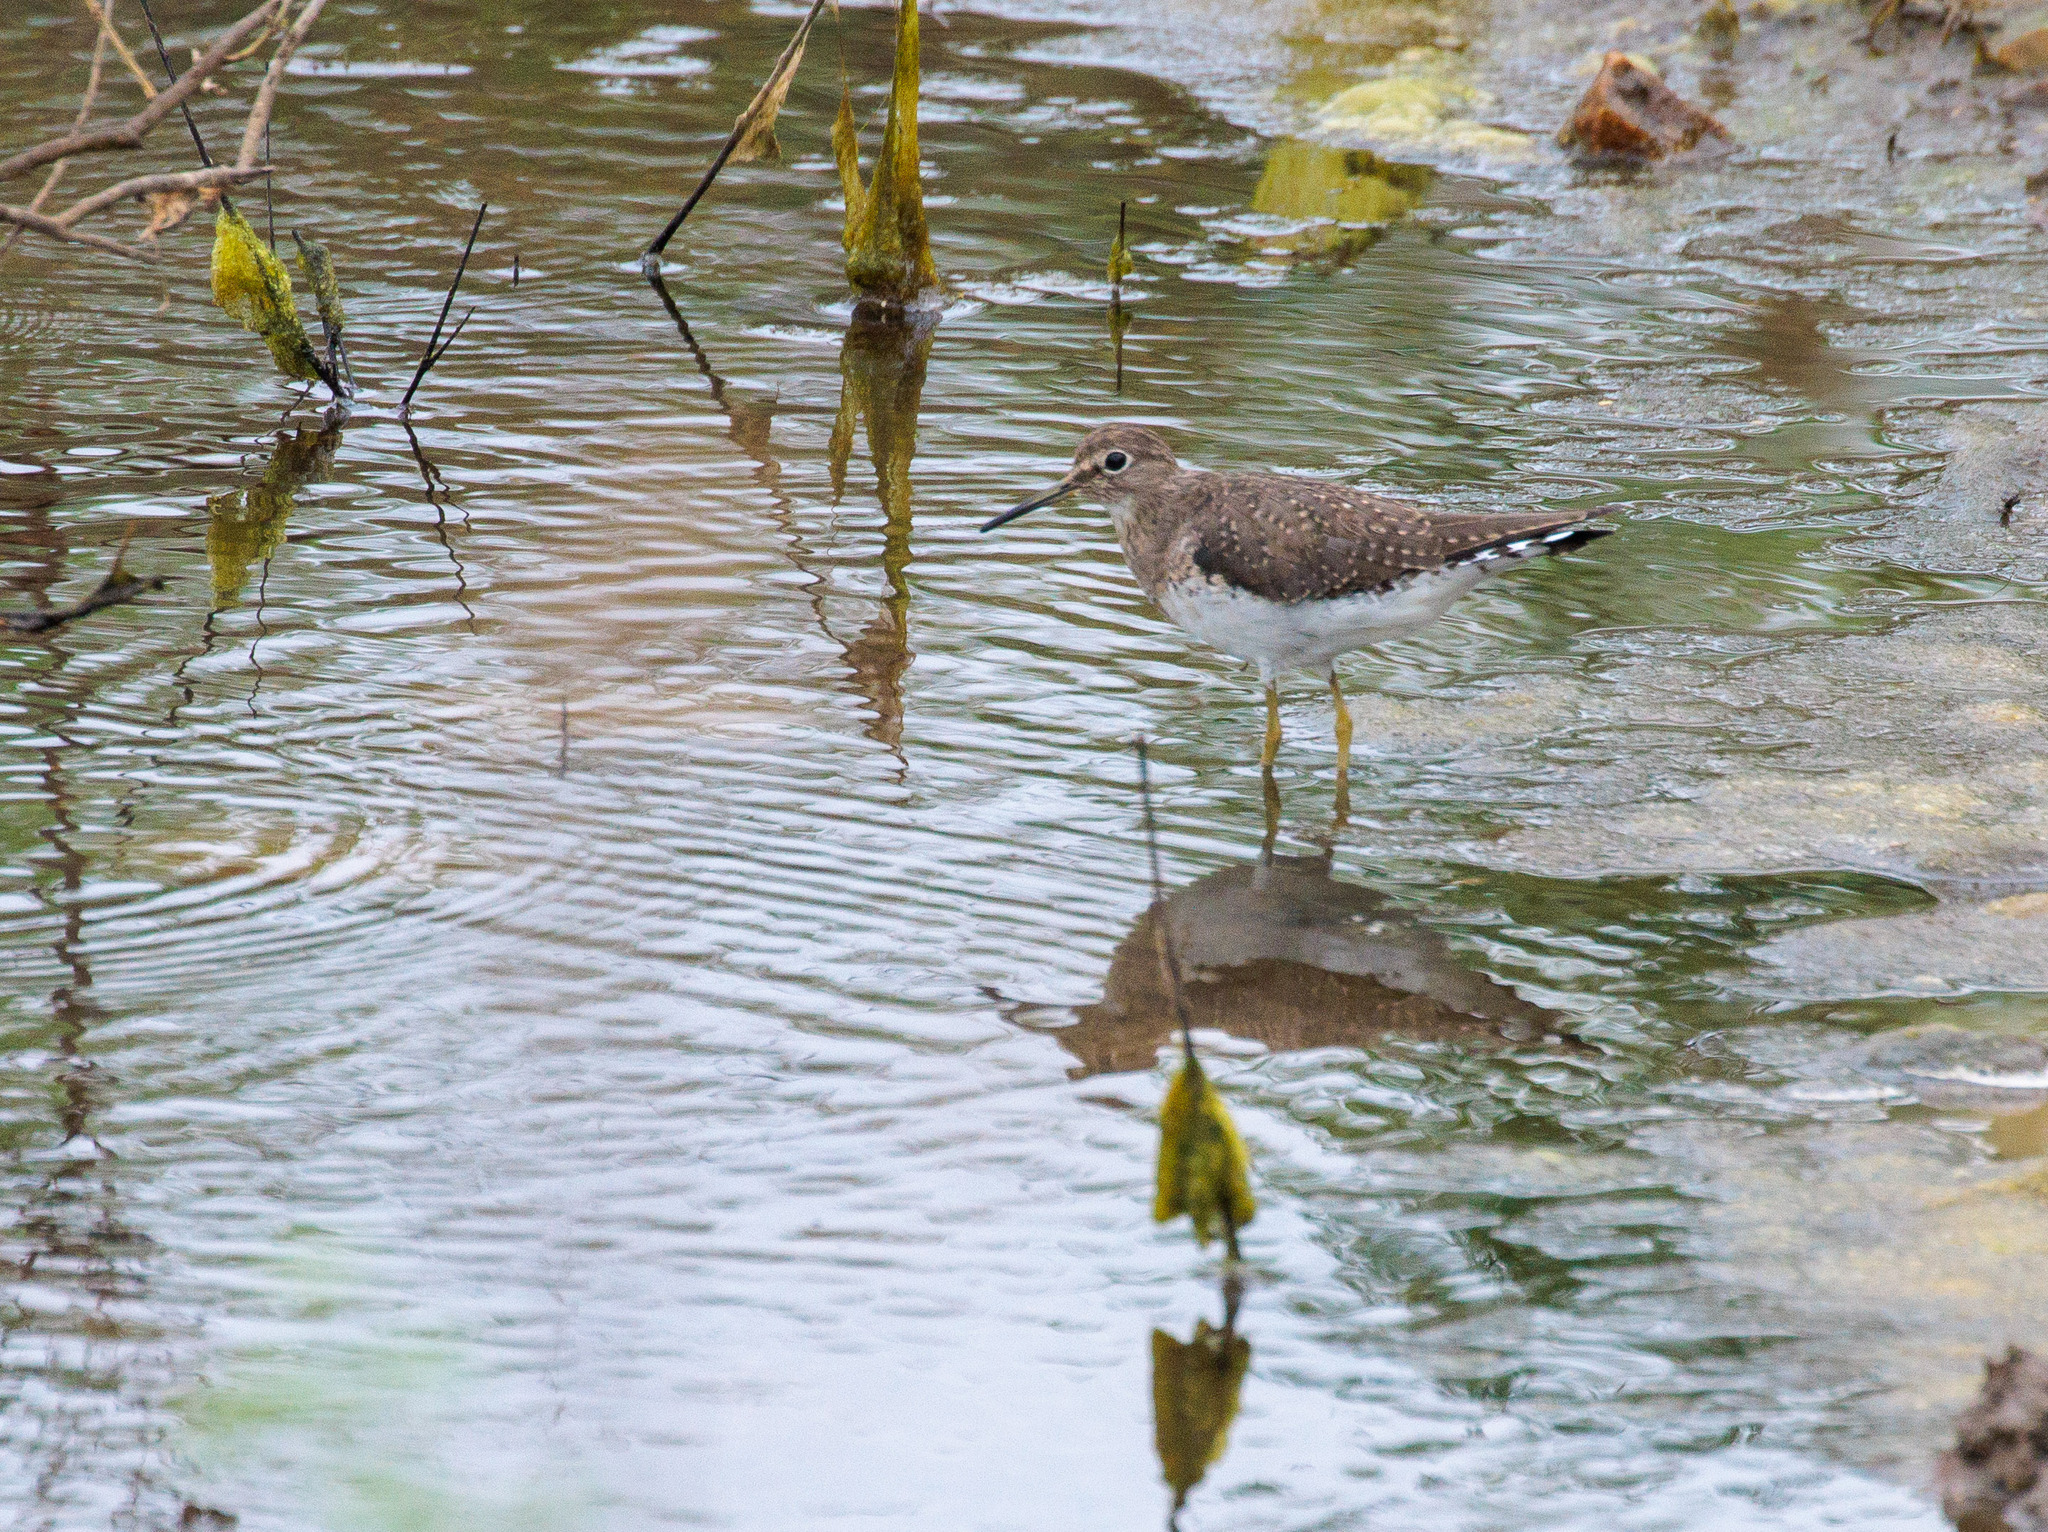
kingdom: Animalia
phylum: Chordata
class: Aves
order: Charadriiformes
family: Scolopacidae
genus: Tringa
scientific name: Tringa solitaria
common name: Solitary sandpiper
